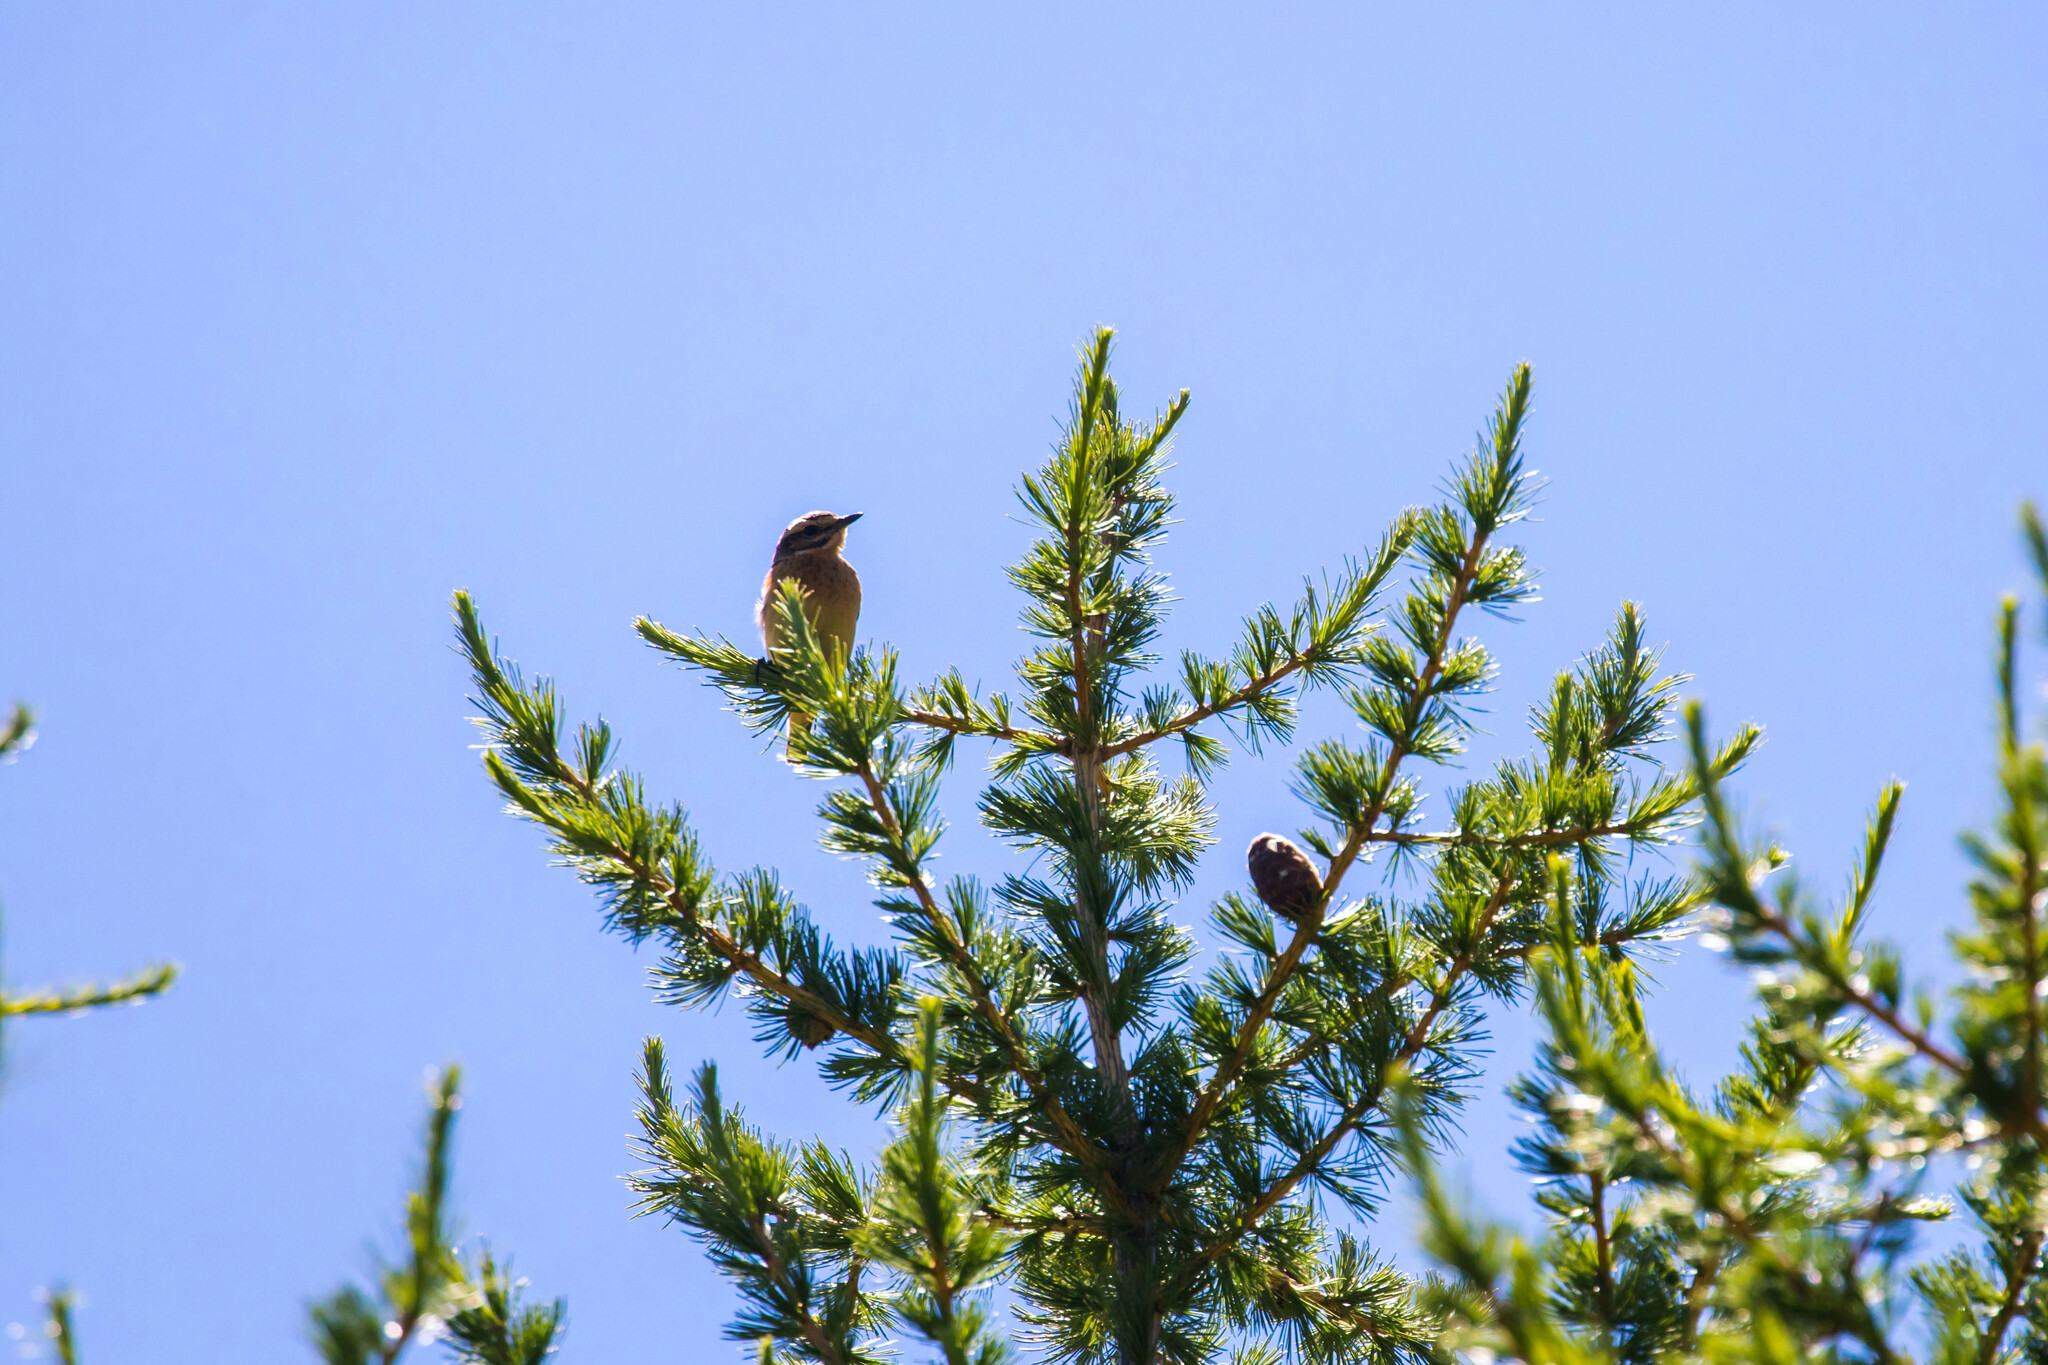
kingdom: Animalia
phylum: Chordata
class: Aves
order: Passeriformes
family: Muscicapidae
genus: Saxicola
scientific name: Saxicola rubetra
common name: Whinchat
